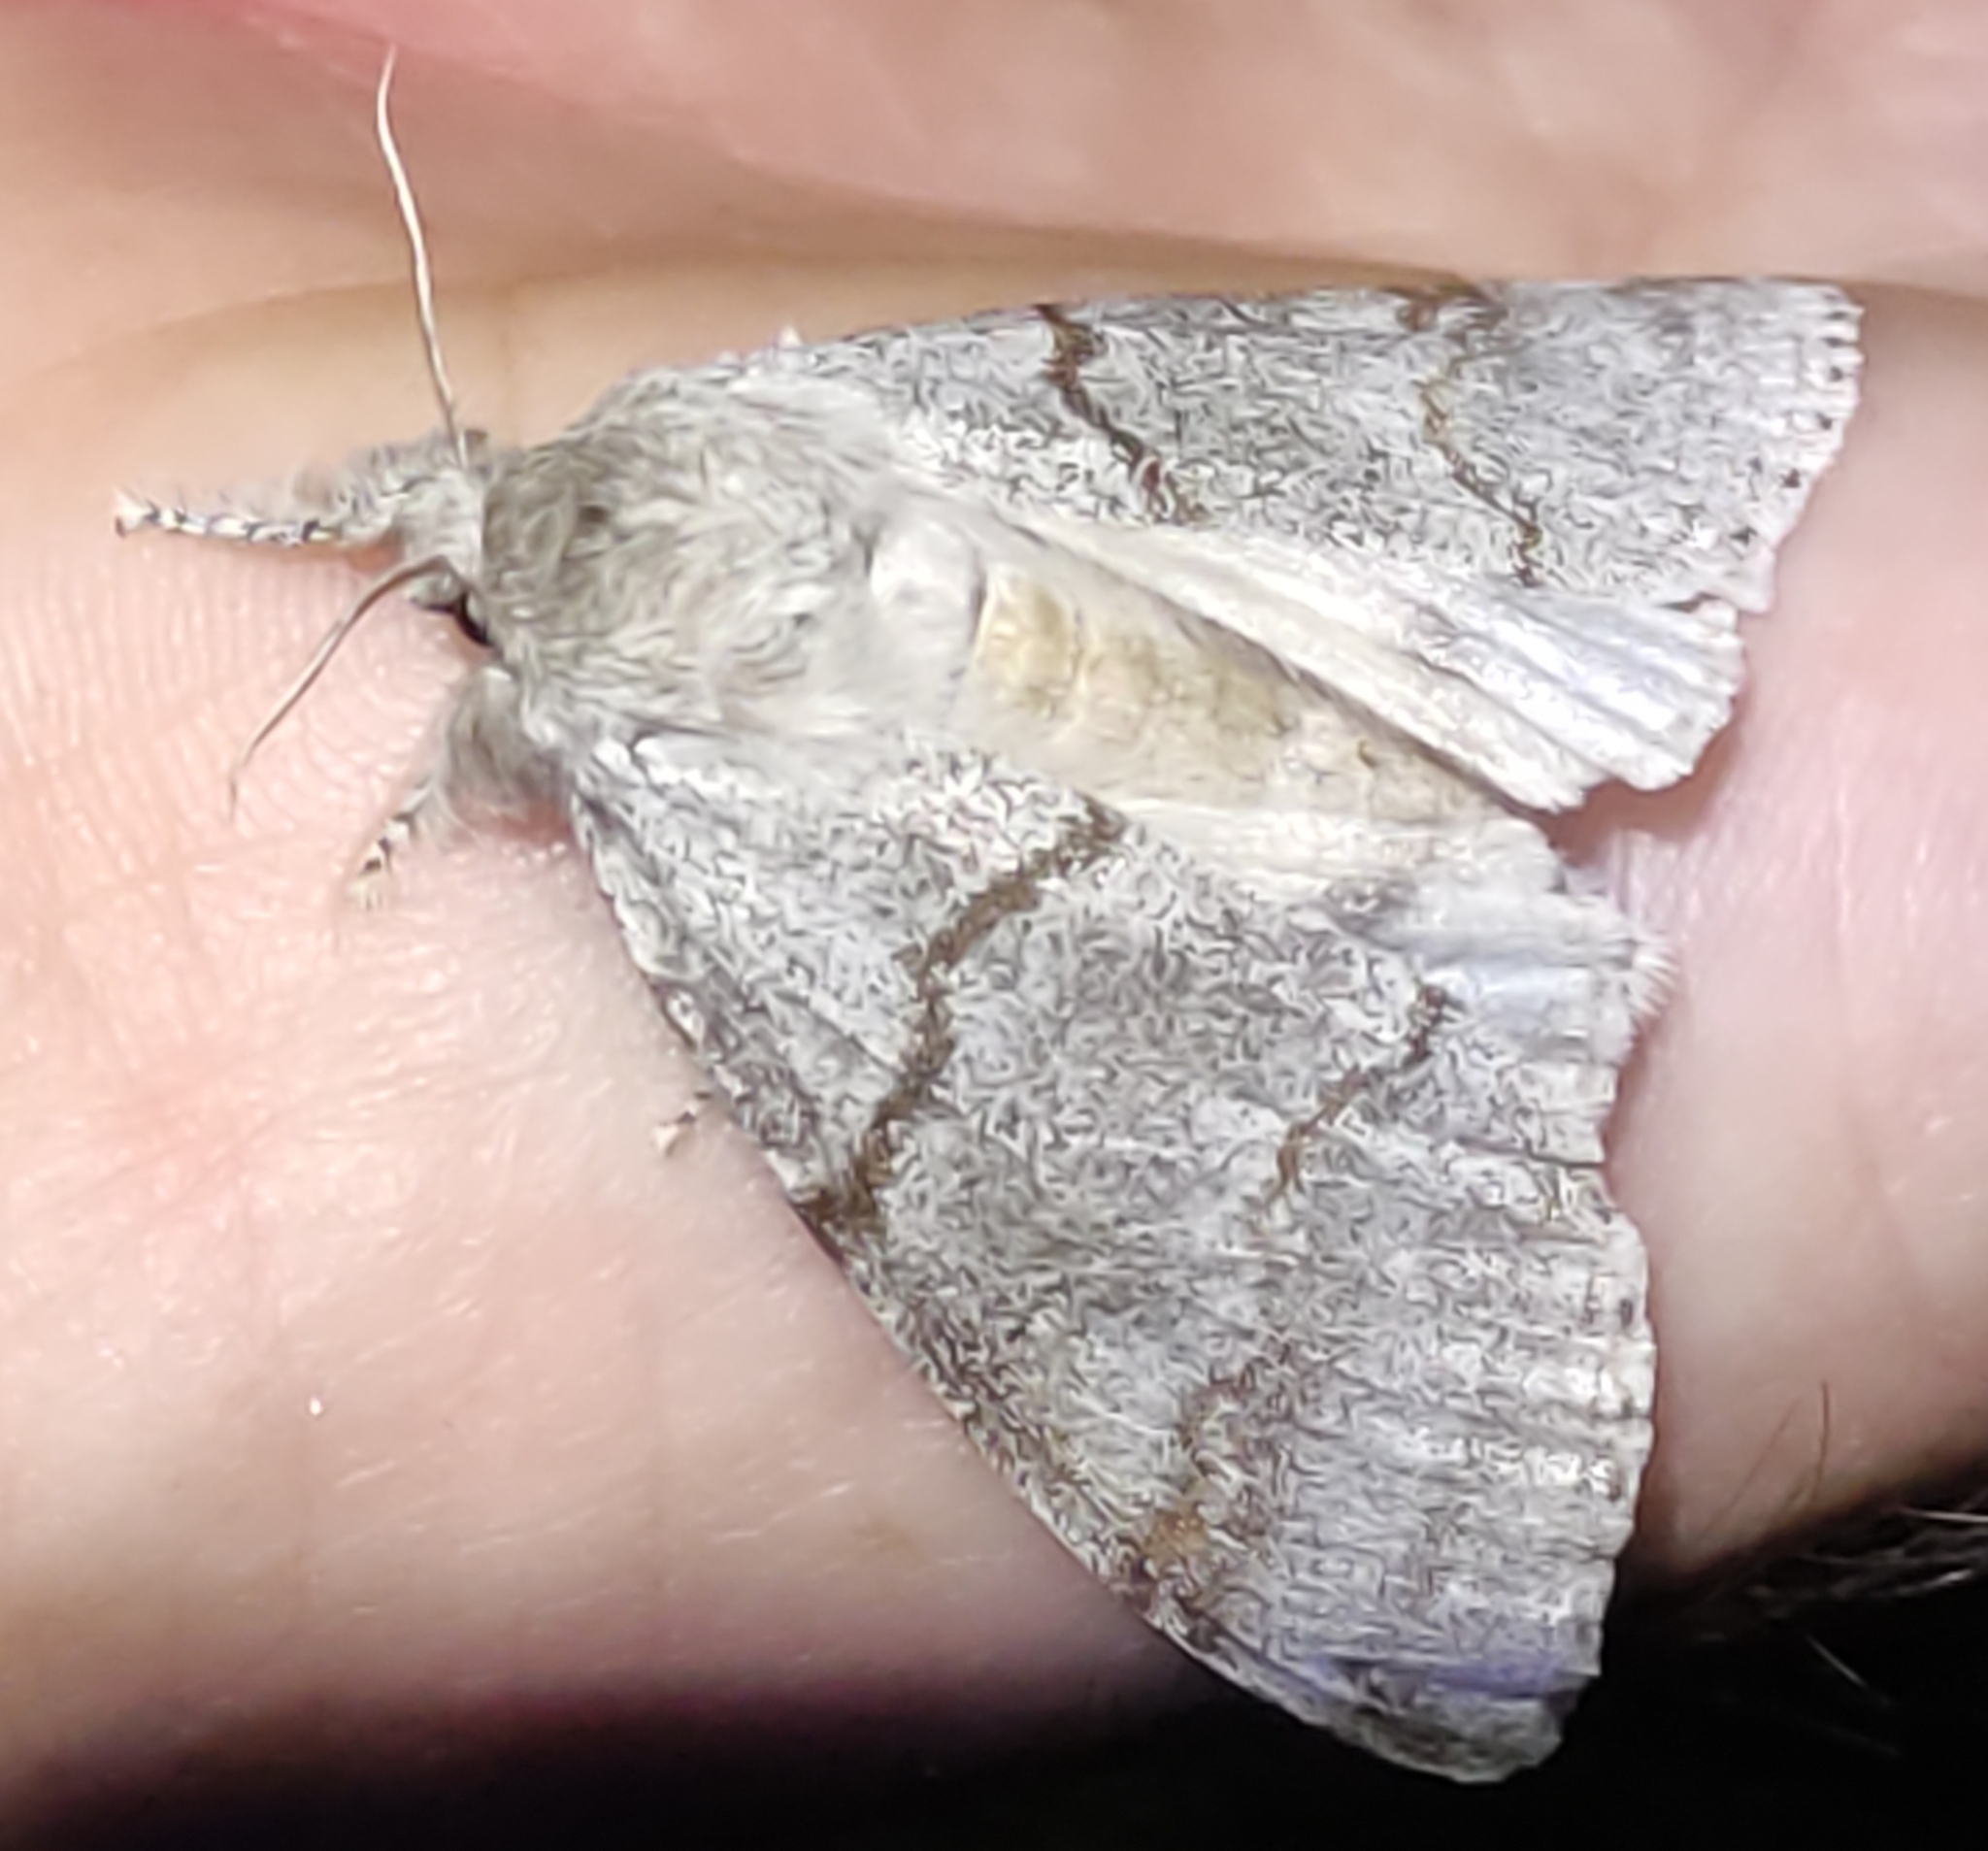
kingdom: Animalia
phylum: Arthropoda
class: Insecta
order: Lepidoptera
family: Erebidae
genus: Calliteara
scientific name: Calliteara pudibunda
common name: Pale tussock
